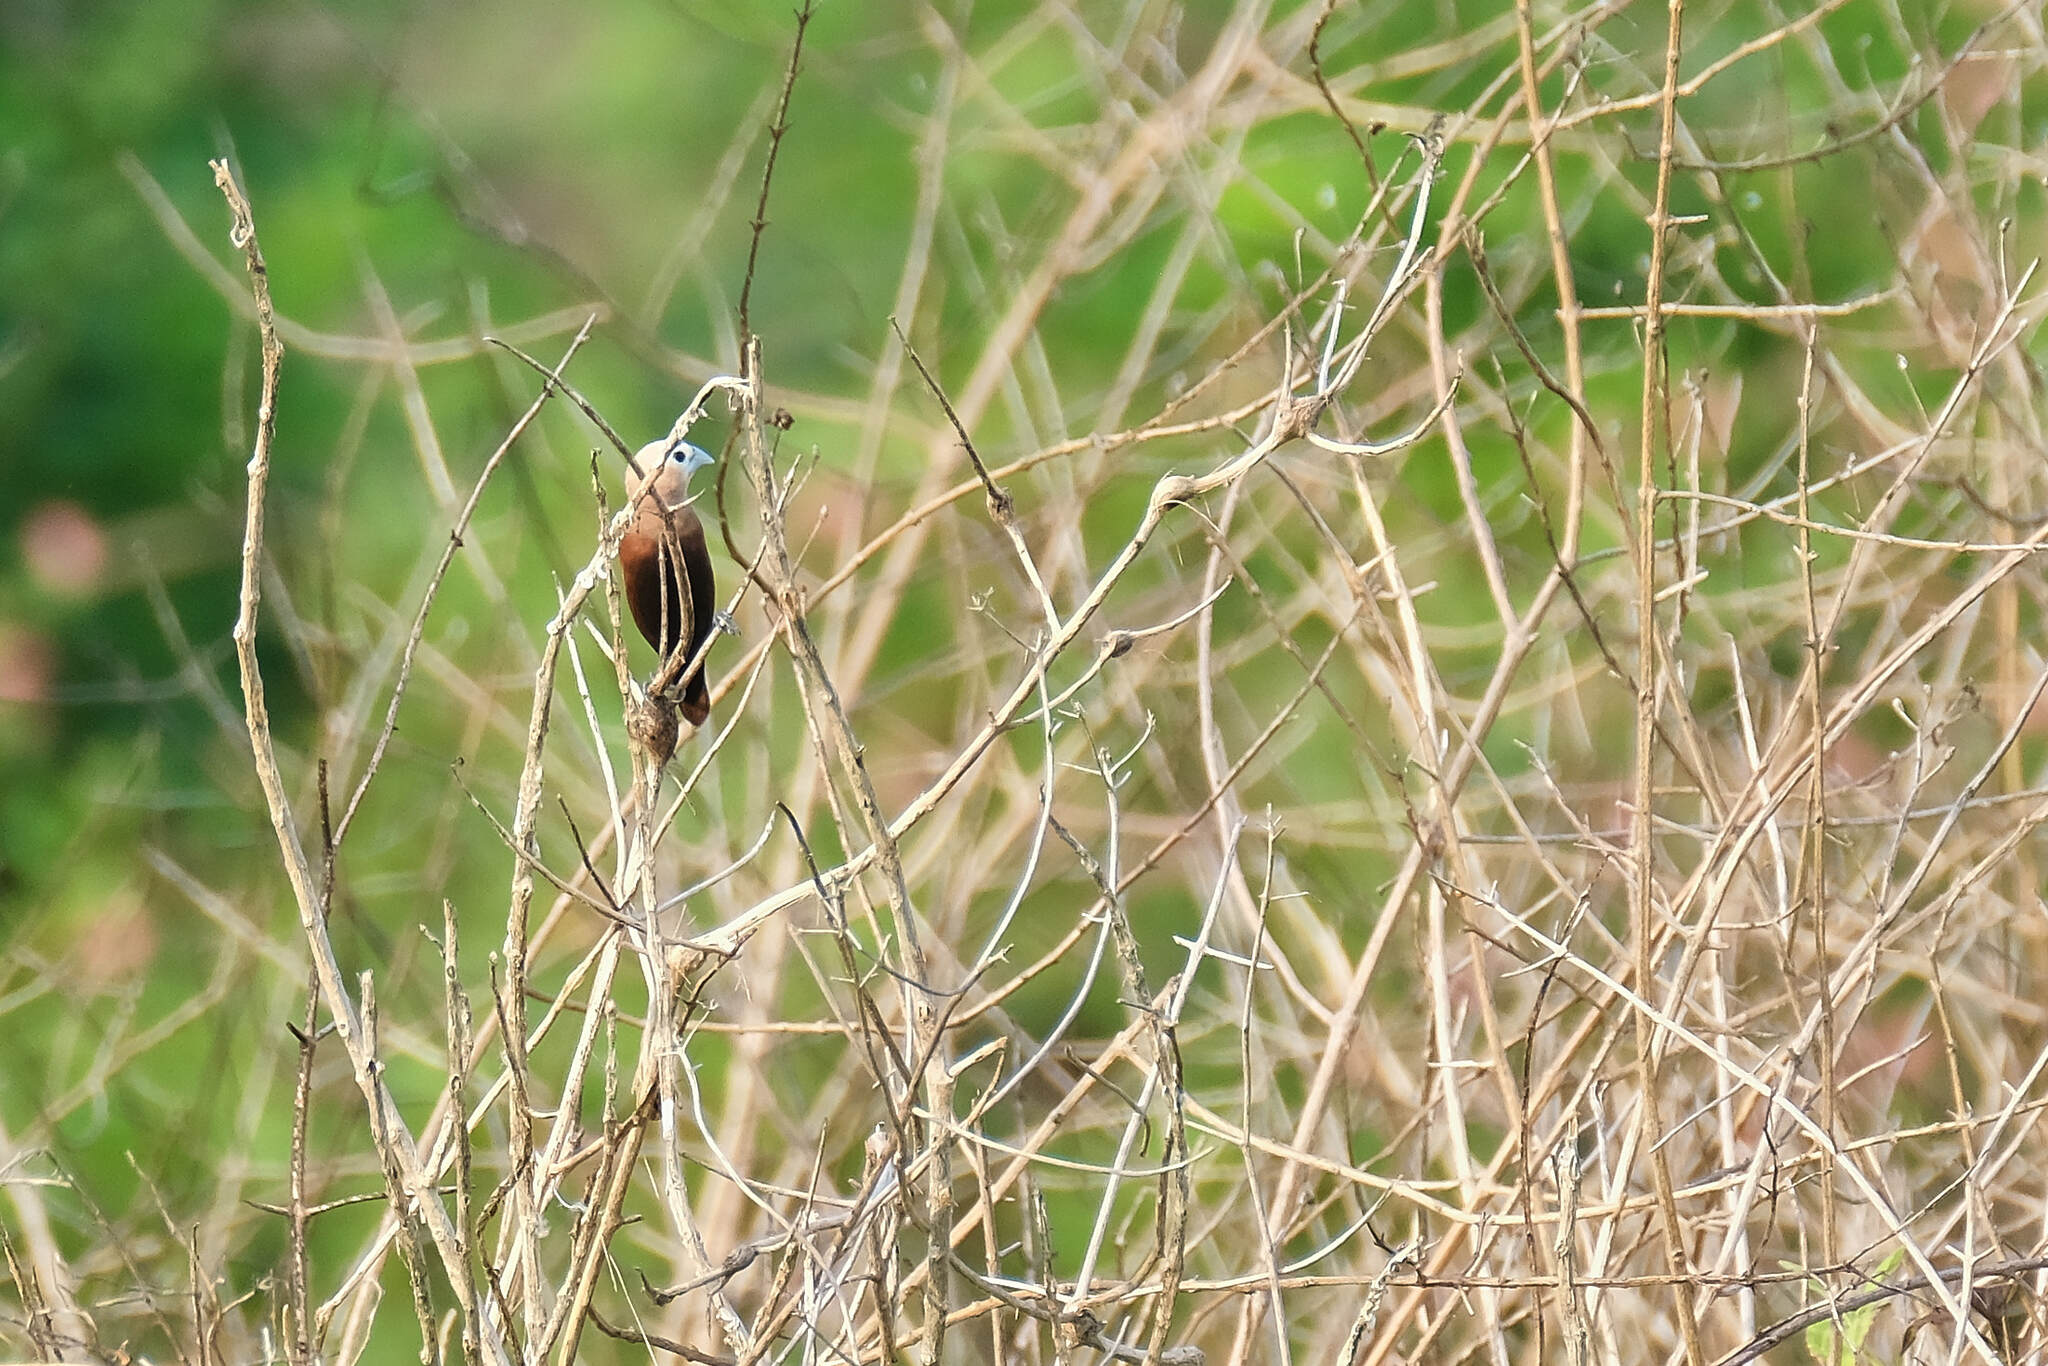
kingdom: Animalia
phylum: Chordata
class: Aves
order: Passeriformes
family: Estrildidae
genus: Lonchura
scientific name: Lonchura maja
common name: White-headed munia
